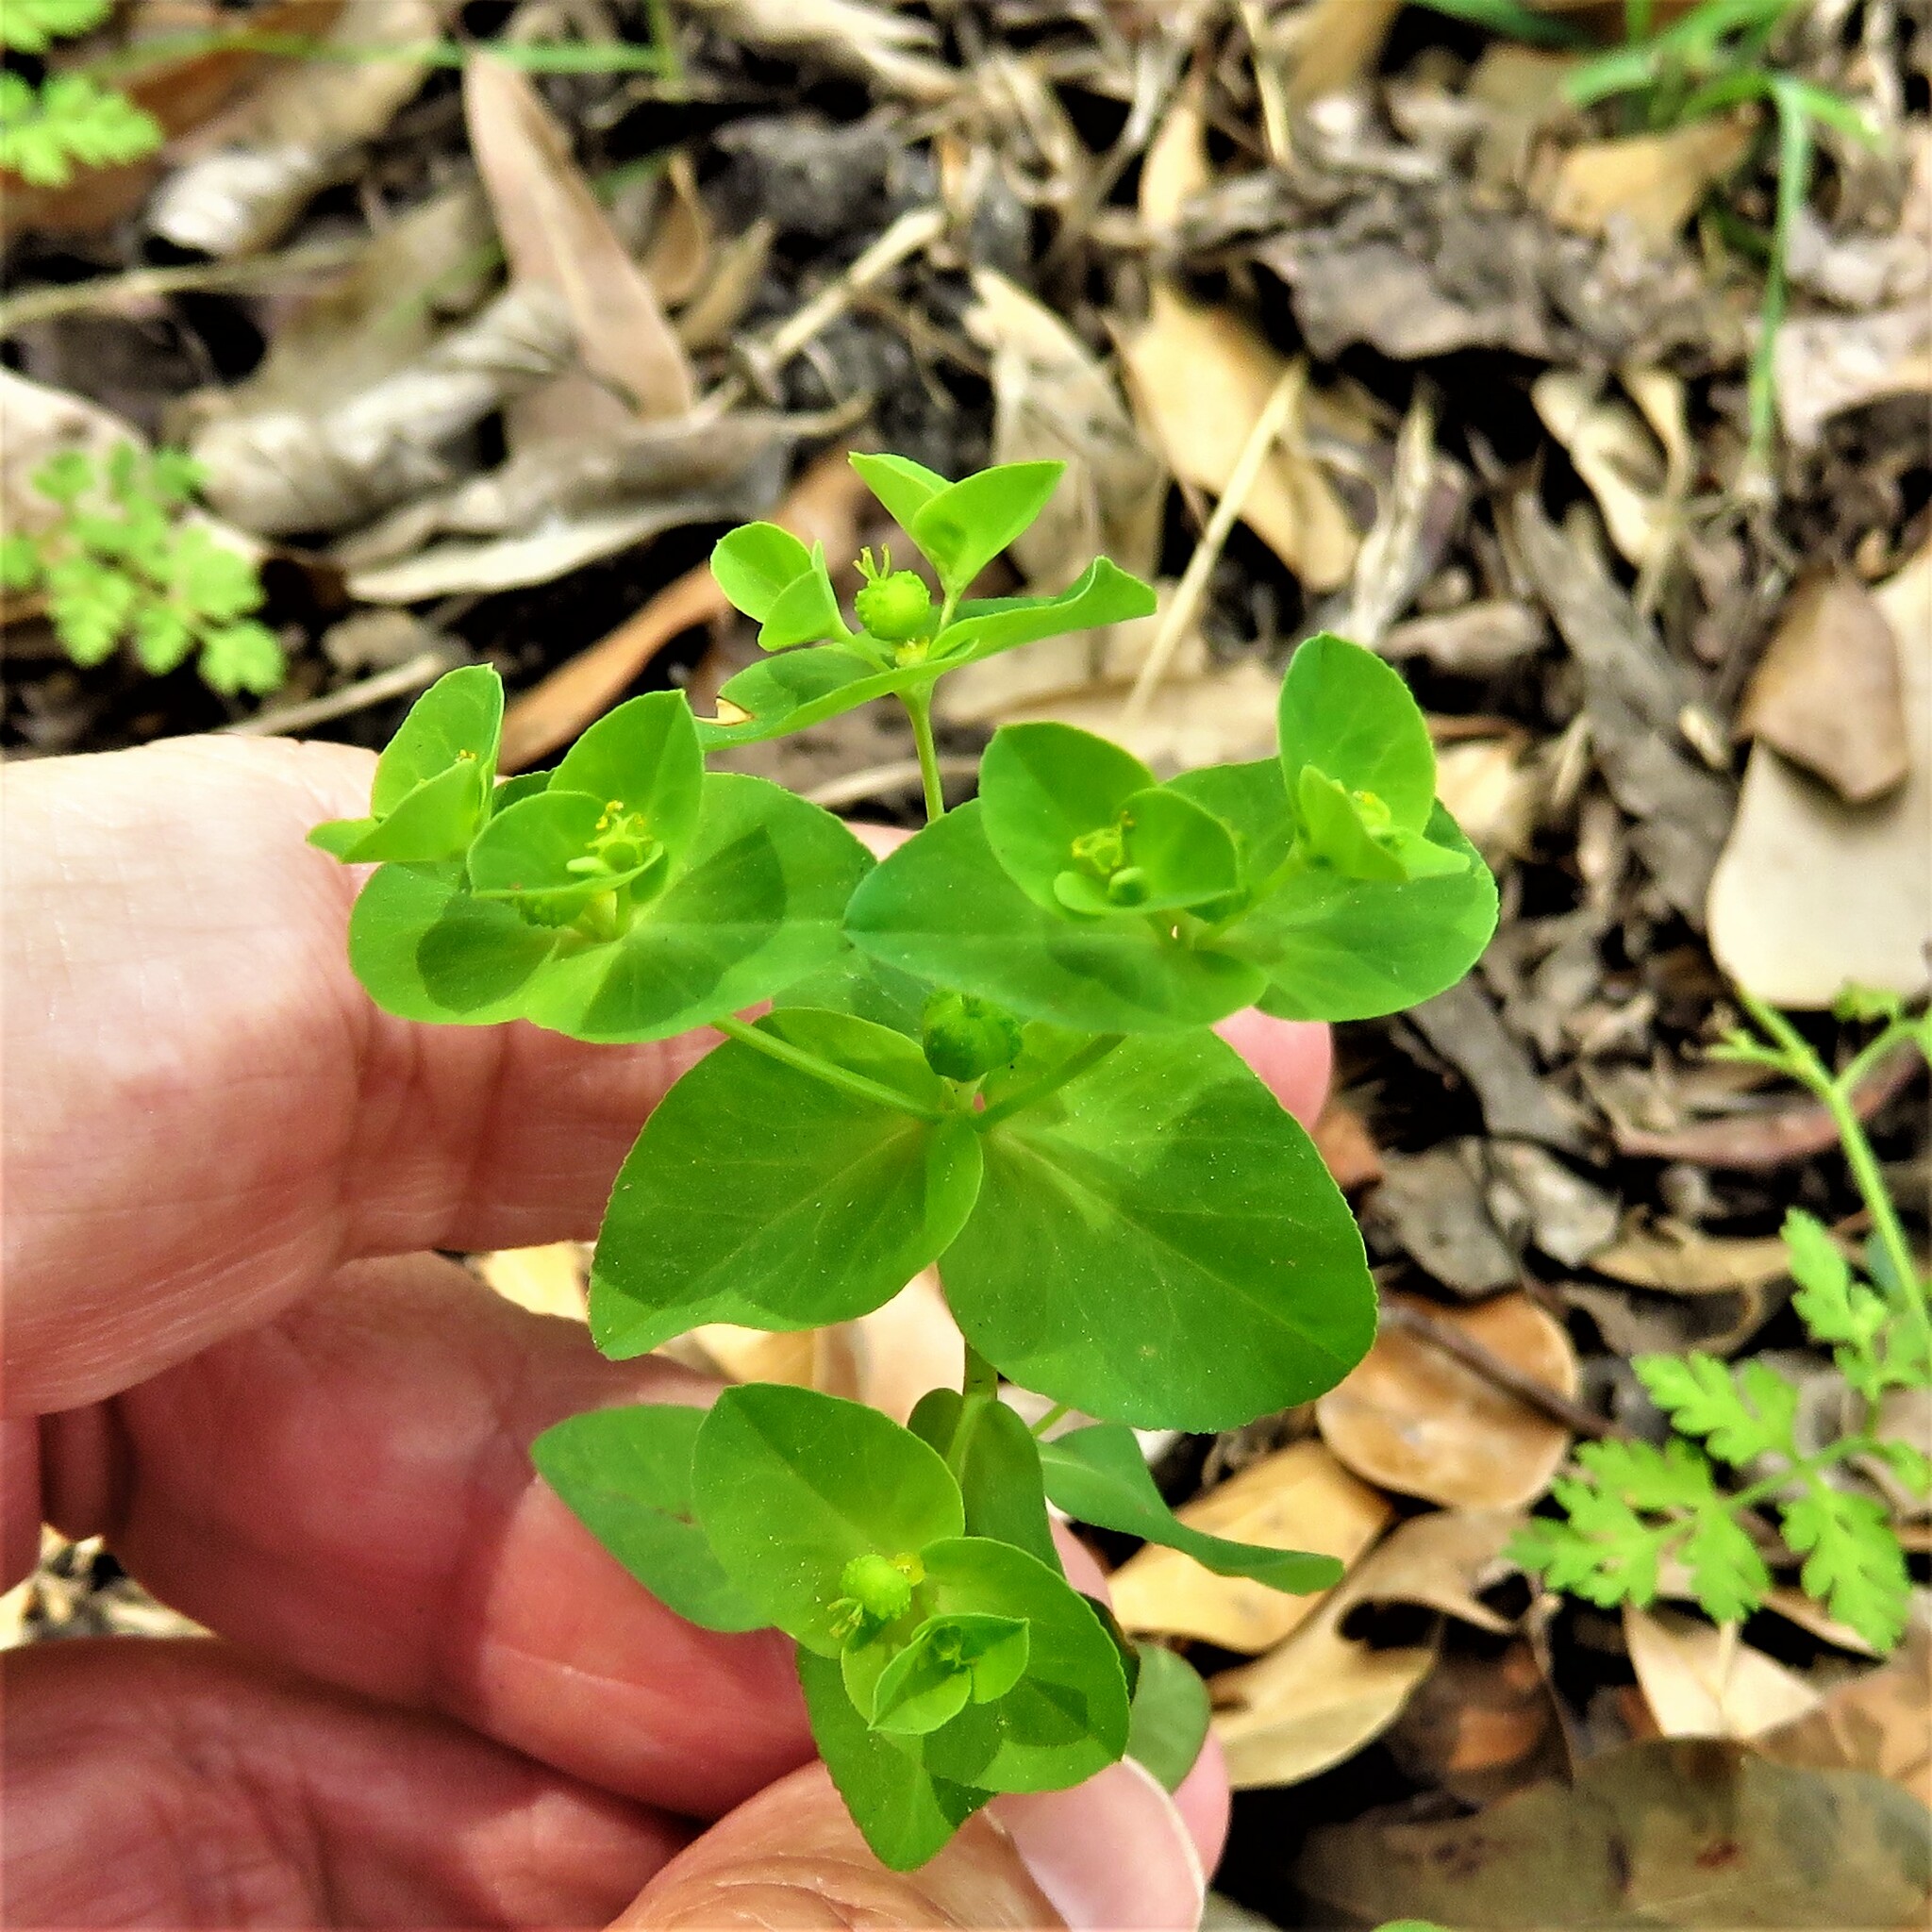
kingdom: Plantae
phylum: Tracheophyta
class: Magnoliopsida
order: Malpighiales
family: Euphorbiaceae
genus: Euphorbia
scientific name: Euphorbia spathulata
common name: Blunt spurge
